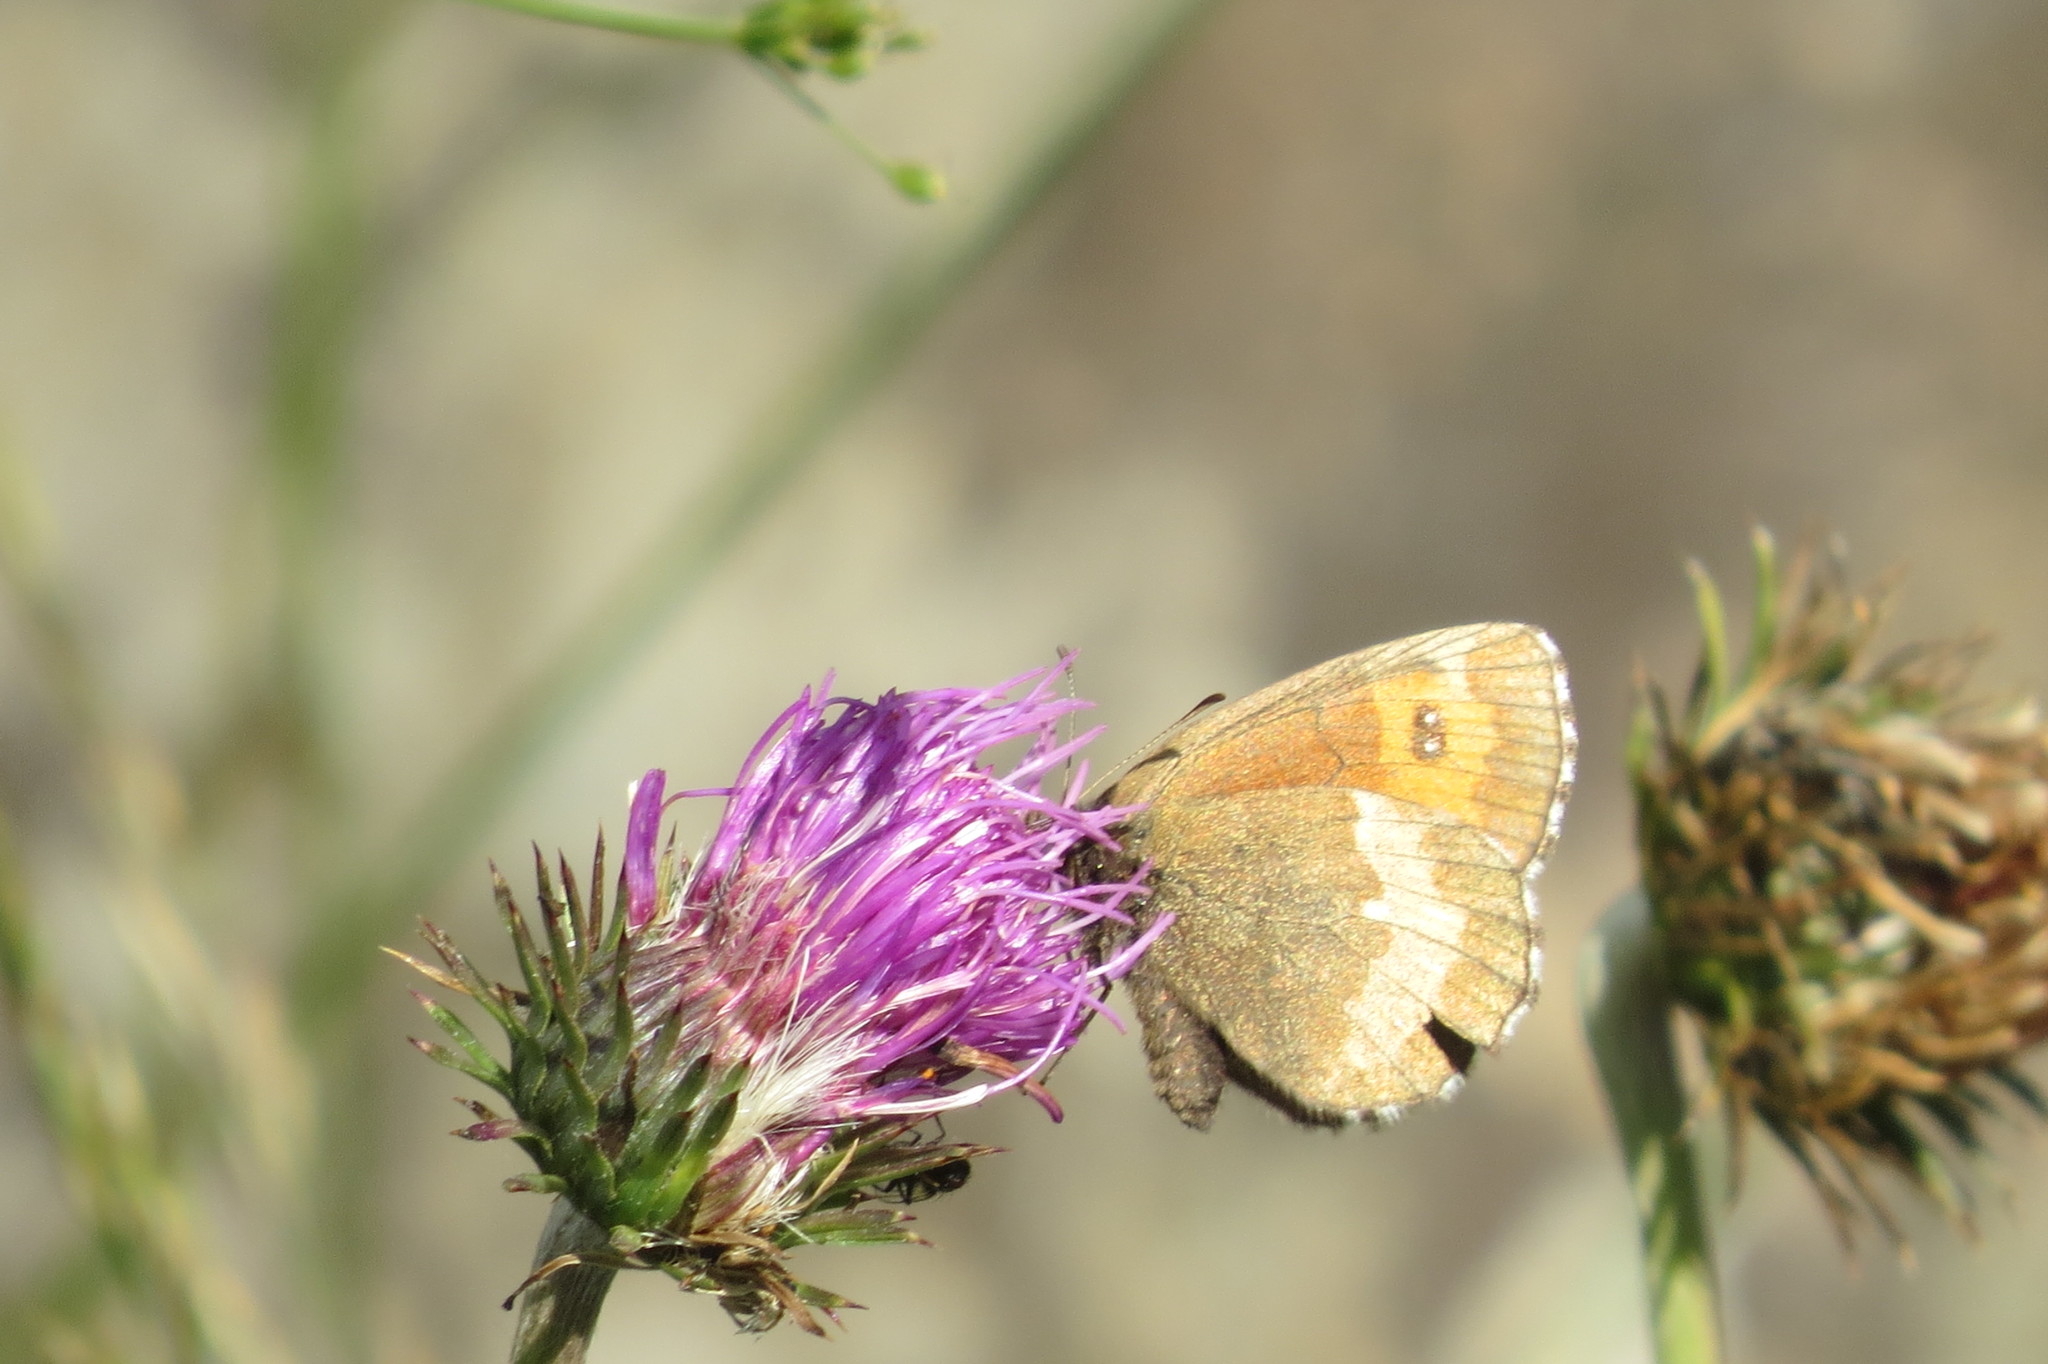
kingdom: Animalia
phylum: Arthropoda
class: Insecta
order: Lepidoptera
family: Nymphalidae
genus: Erebia
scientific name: Erebia euryale
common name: Large ringlet
